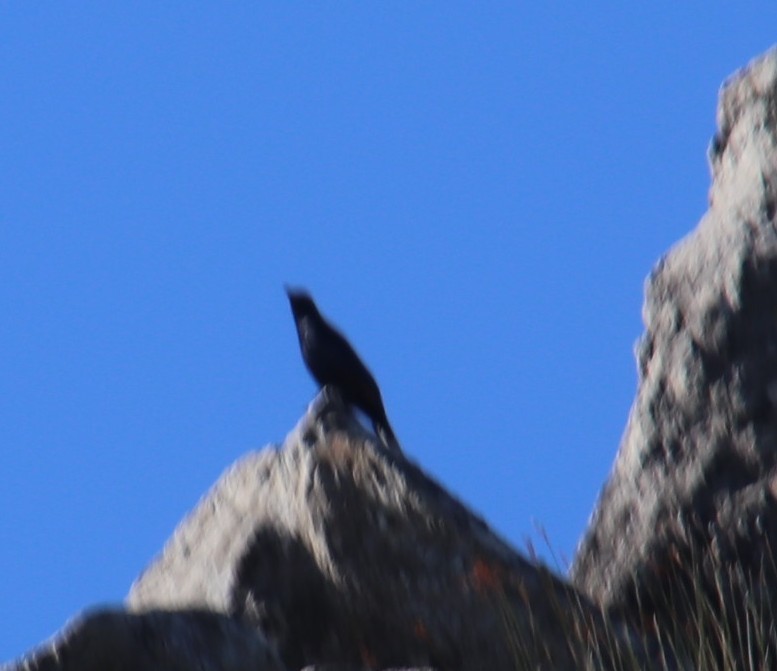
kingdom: Animalia
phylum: Chordata
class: Aves
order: Passeriformes
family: Sturnidae
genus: Onychognathus
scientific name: Onychognathus morio
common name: Red-winged starling
